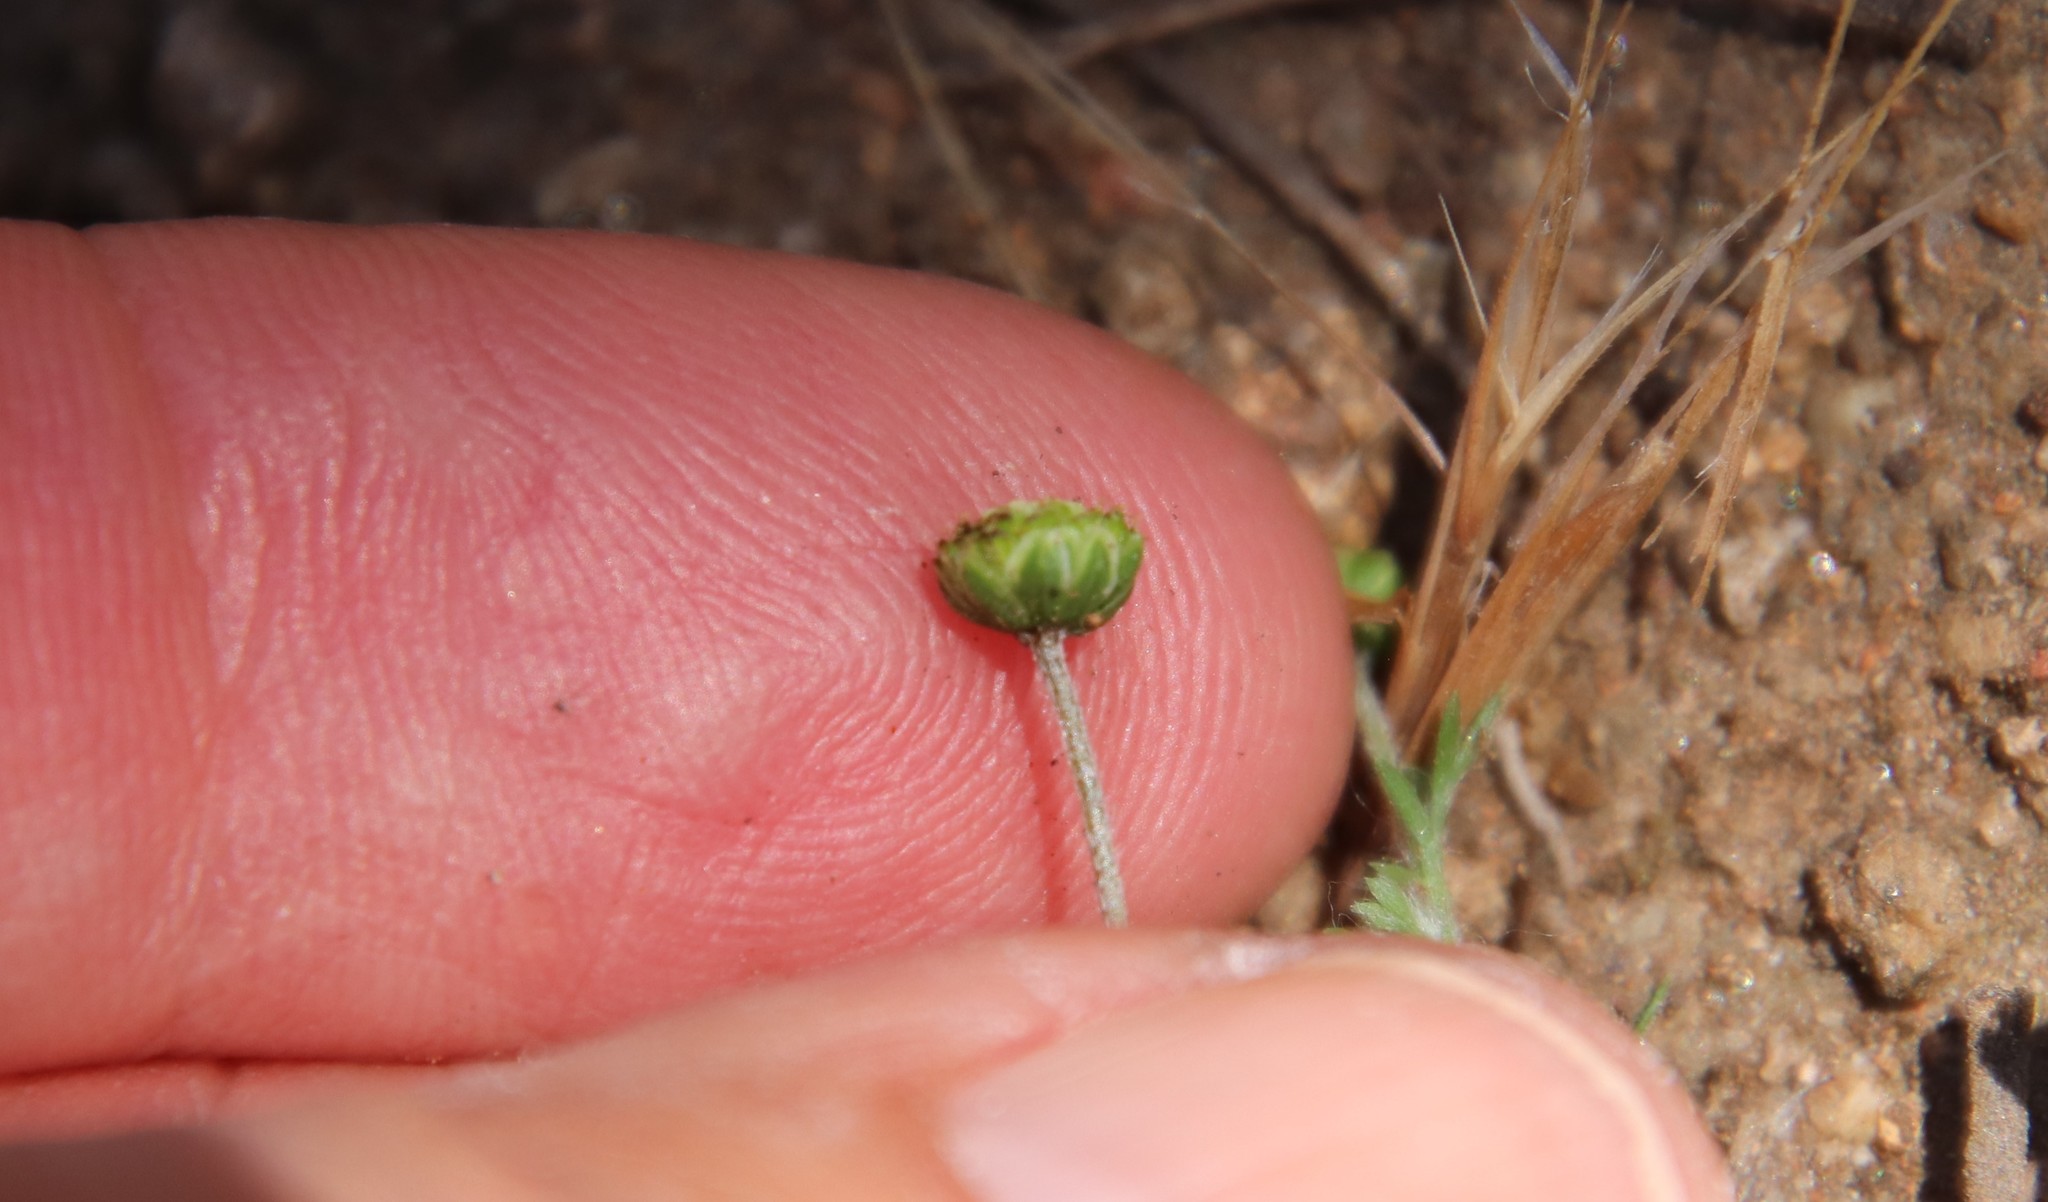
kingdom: Plantae
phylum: Tracheophyta
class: Magnoliopsida
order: Asterales
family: Asteraceae
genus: Cotula
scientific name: Cotula australis
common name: Australian waterbuttons
